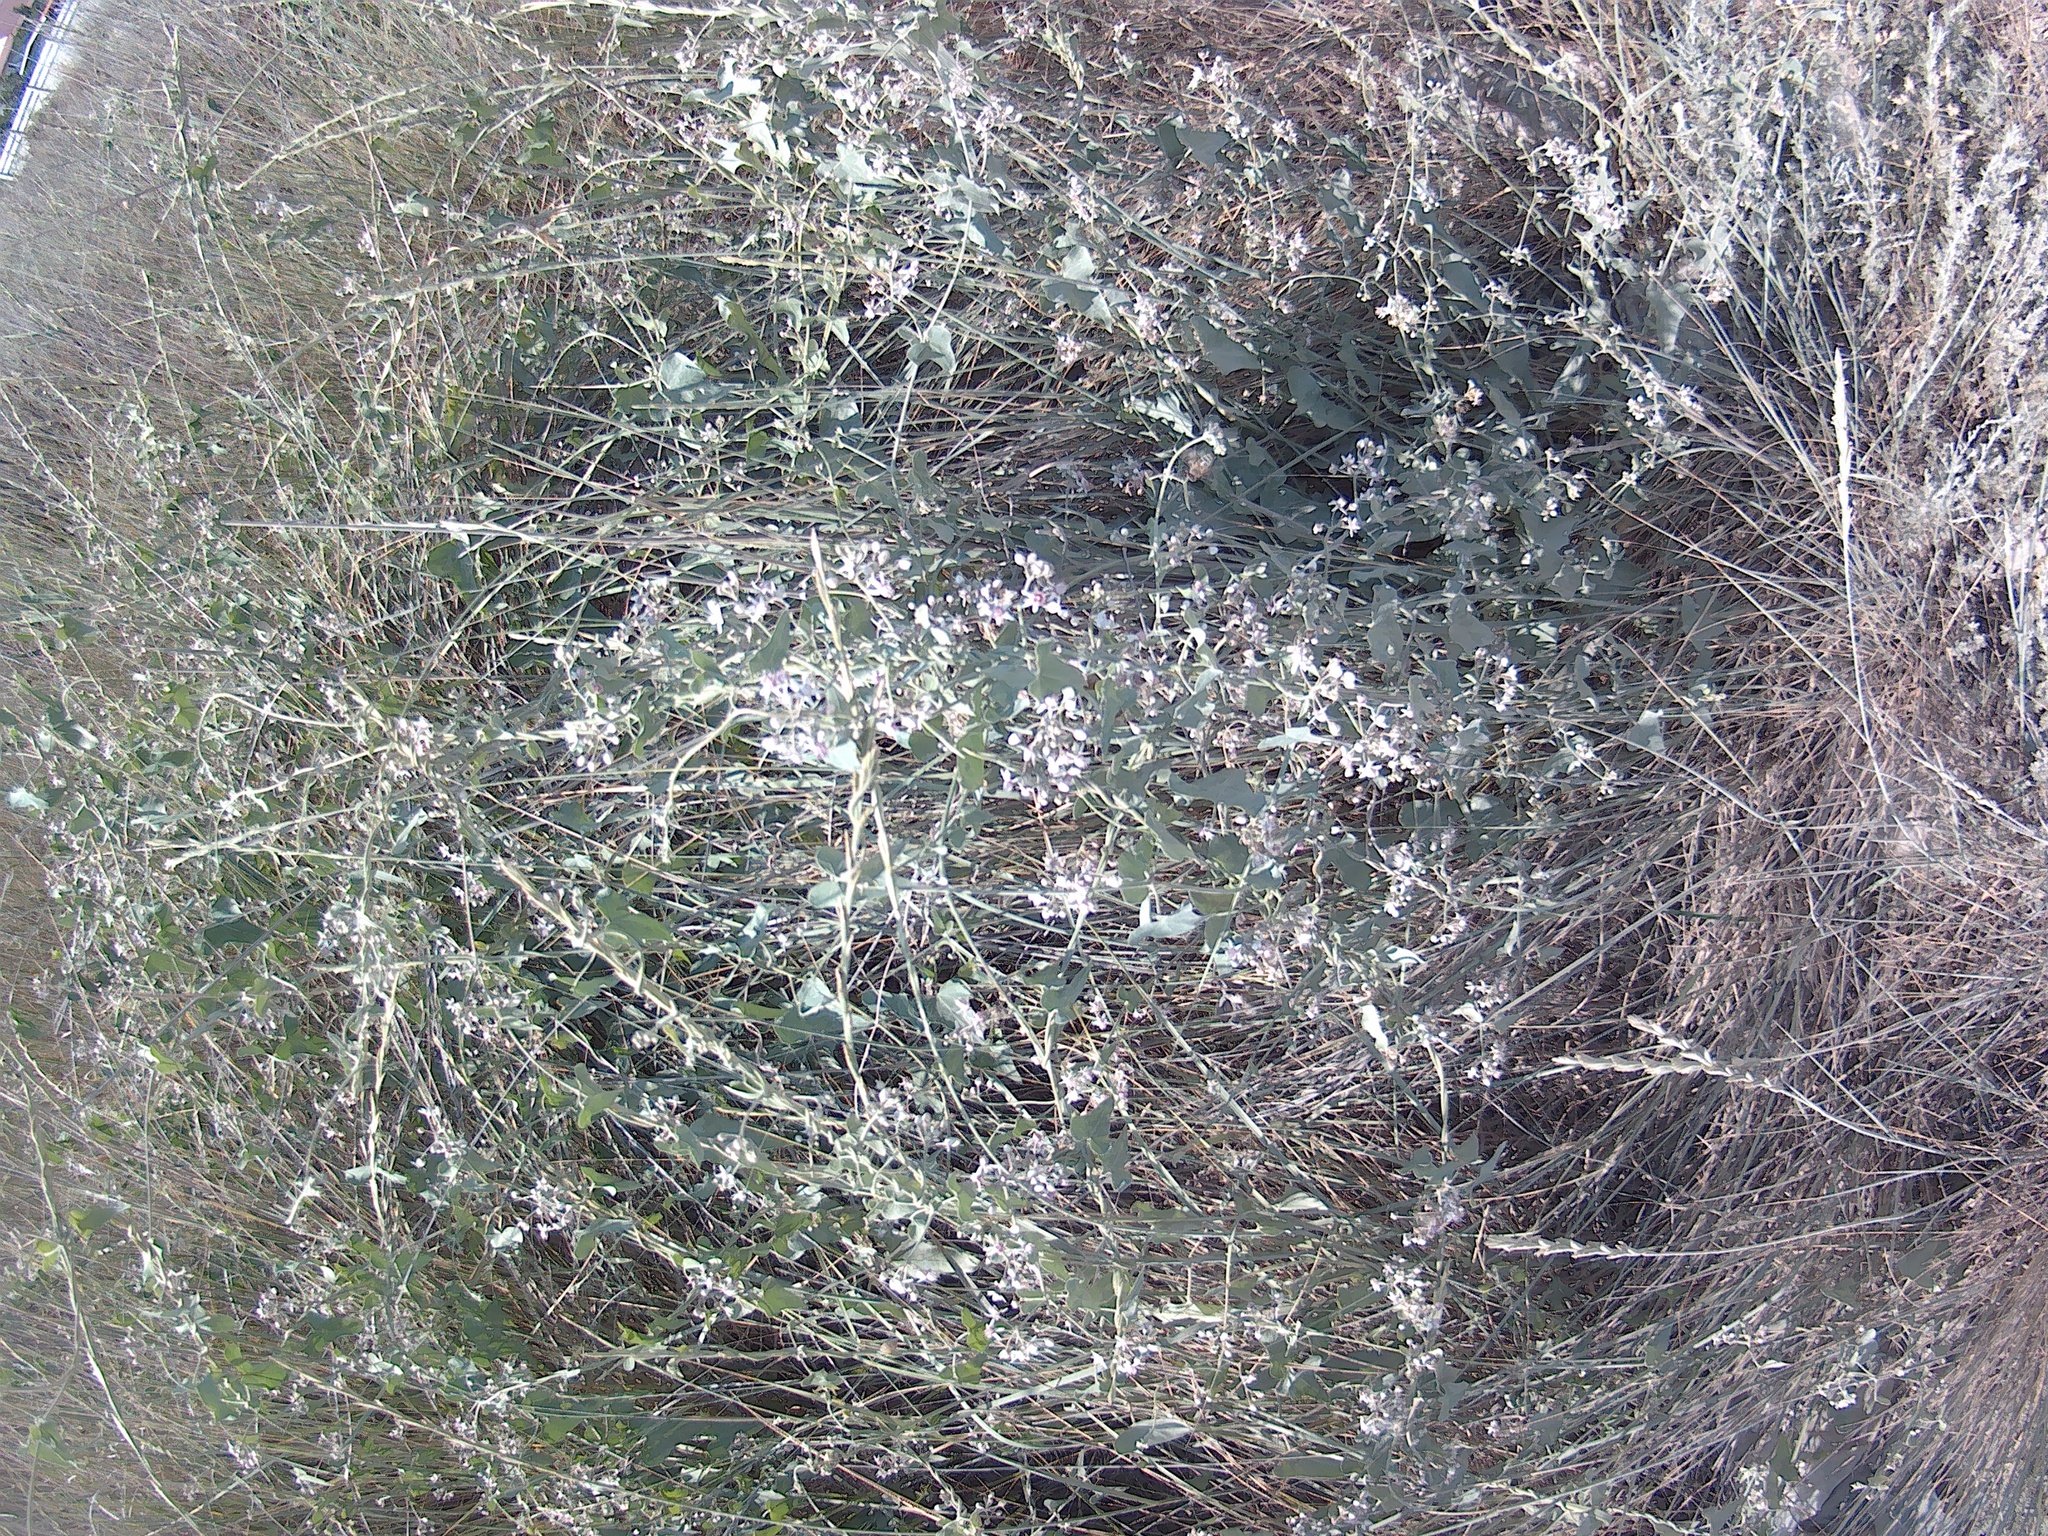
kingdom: Plantae
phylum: Tracheophyta
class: Magnoliopsida
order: Gentianales
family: Apocynaceae
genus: Cynanchum
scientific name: Cynanchum acutum
